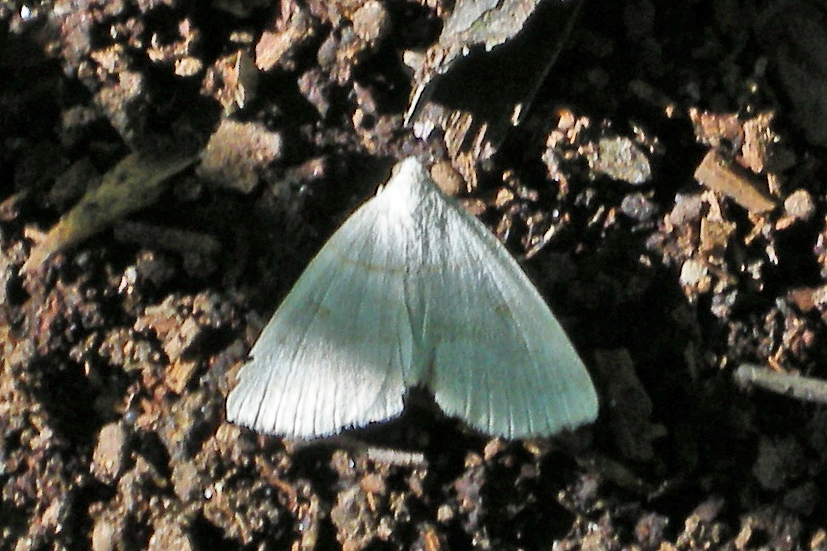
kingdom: Animalia
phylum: Arthropoda
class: Insecta
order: Lepidoptera
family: Erebidae
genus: Macrochilo
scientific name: Macrochilo morbidalis
